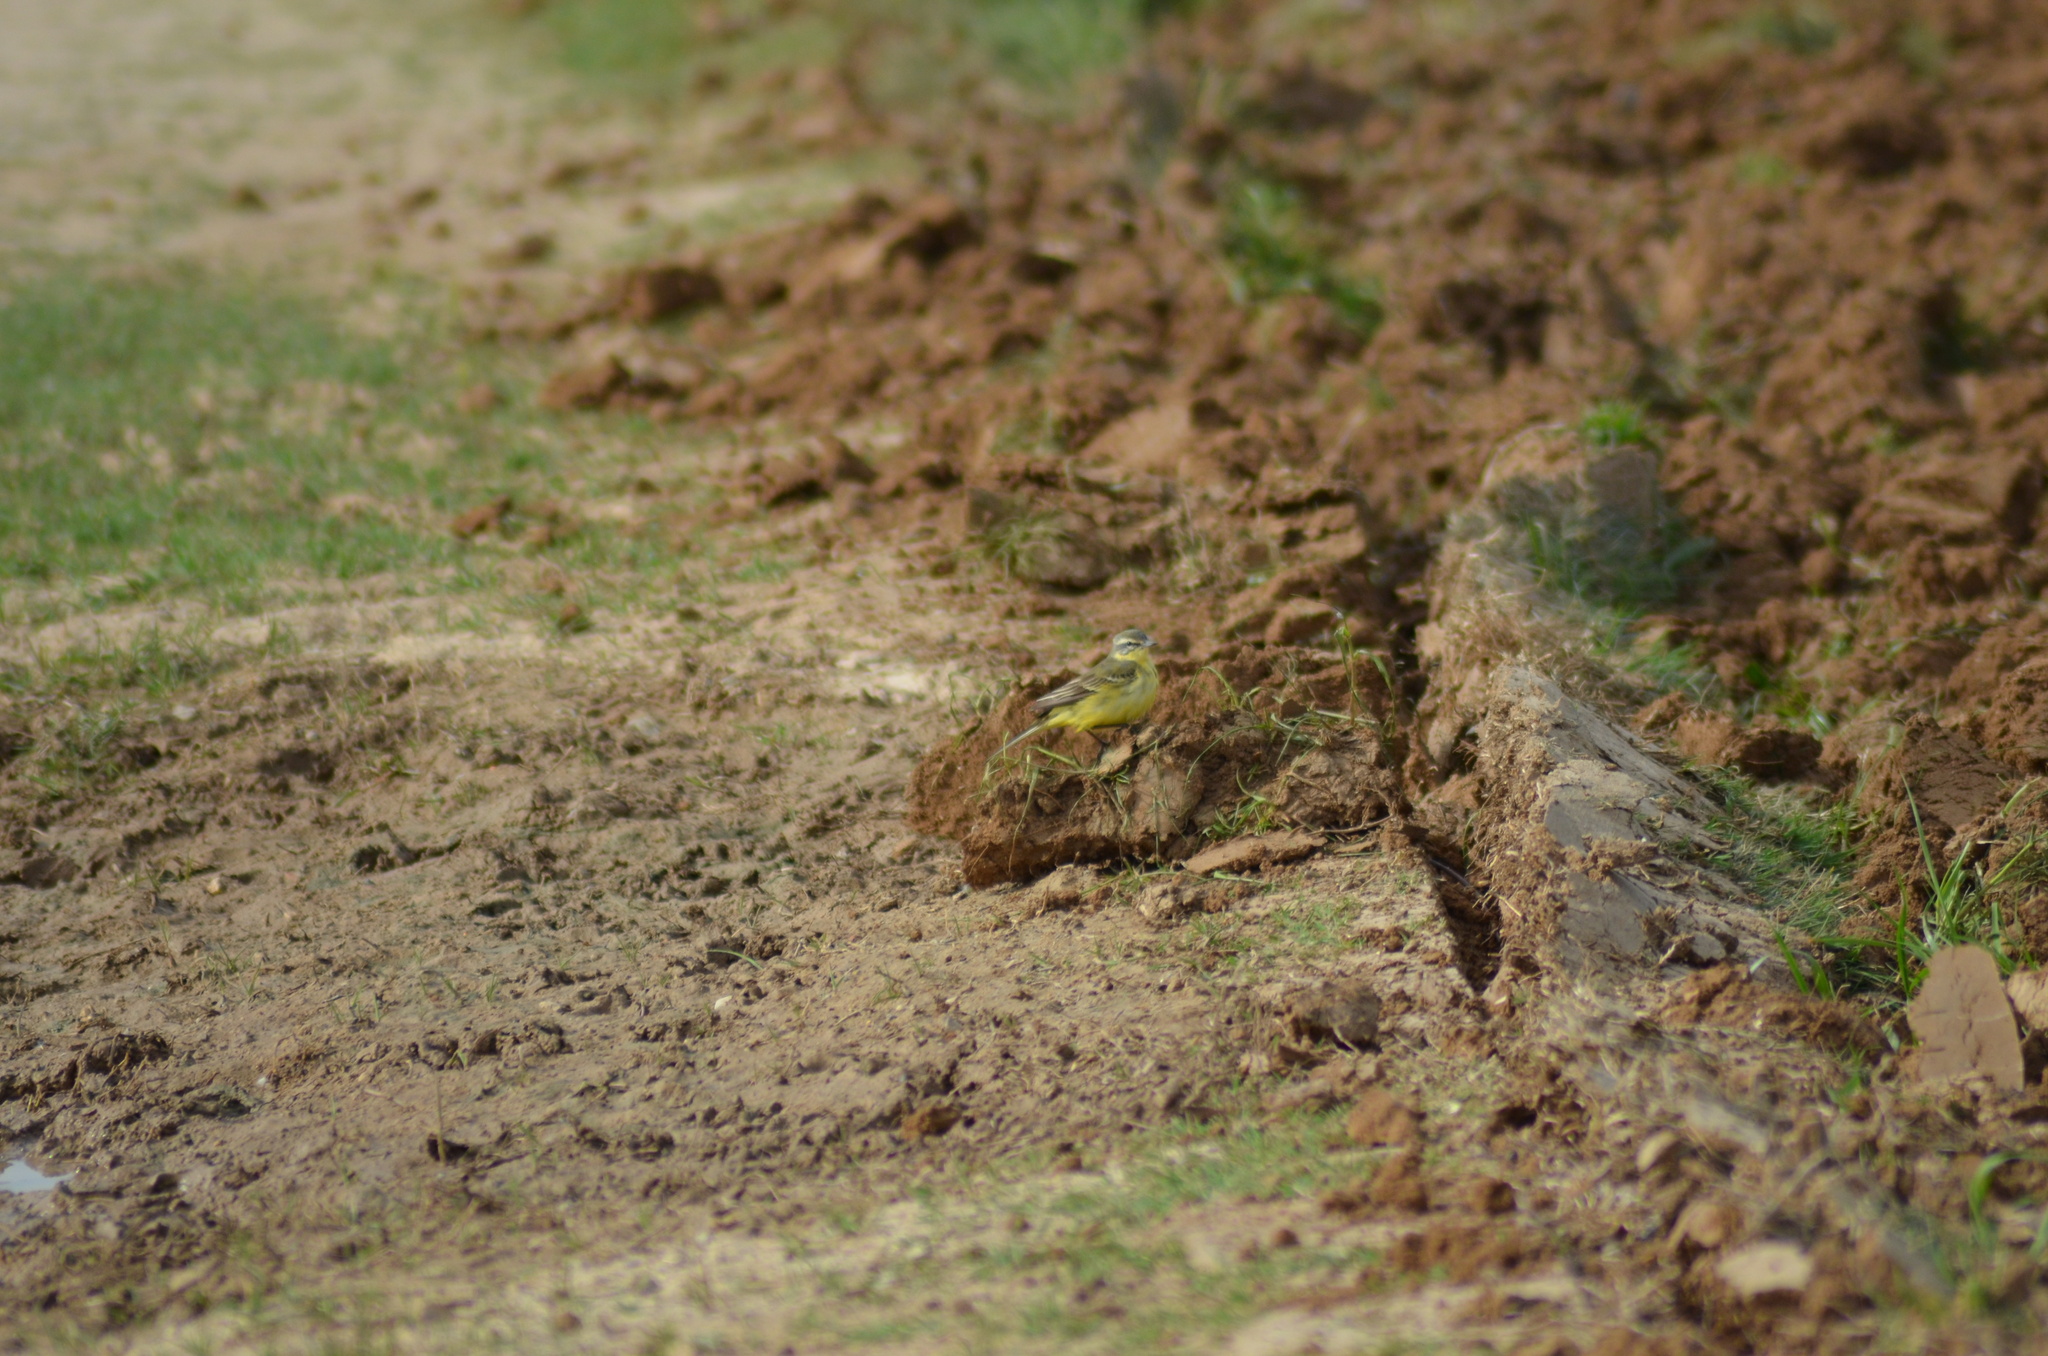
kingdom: Animalia
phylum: Chordata
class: Aves
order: Passeriformes
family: Motacillidae
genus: Motacilla
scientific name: Motacilla flava
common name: Western yellow wagtail
